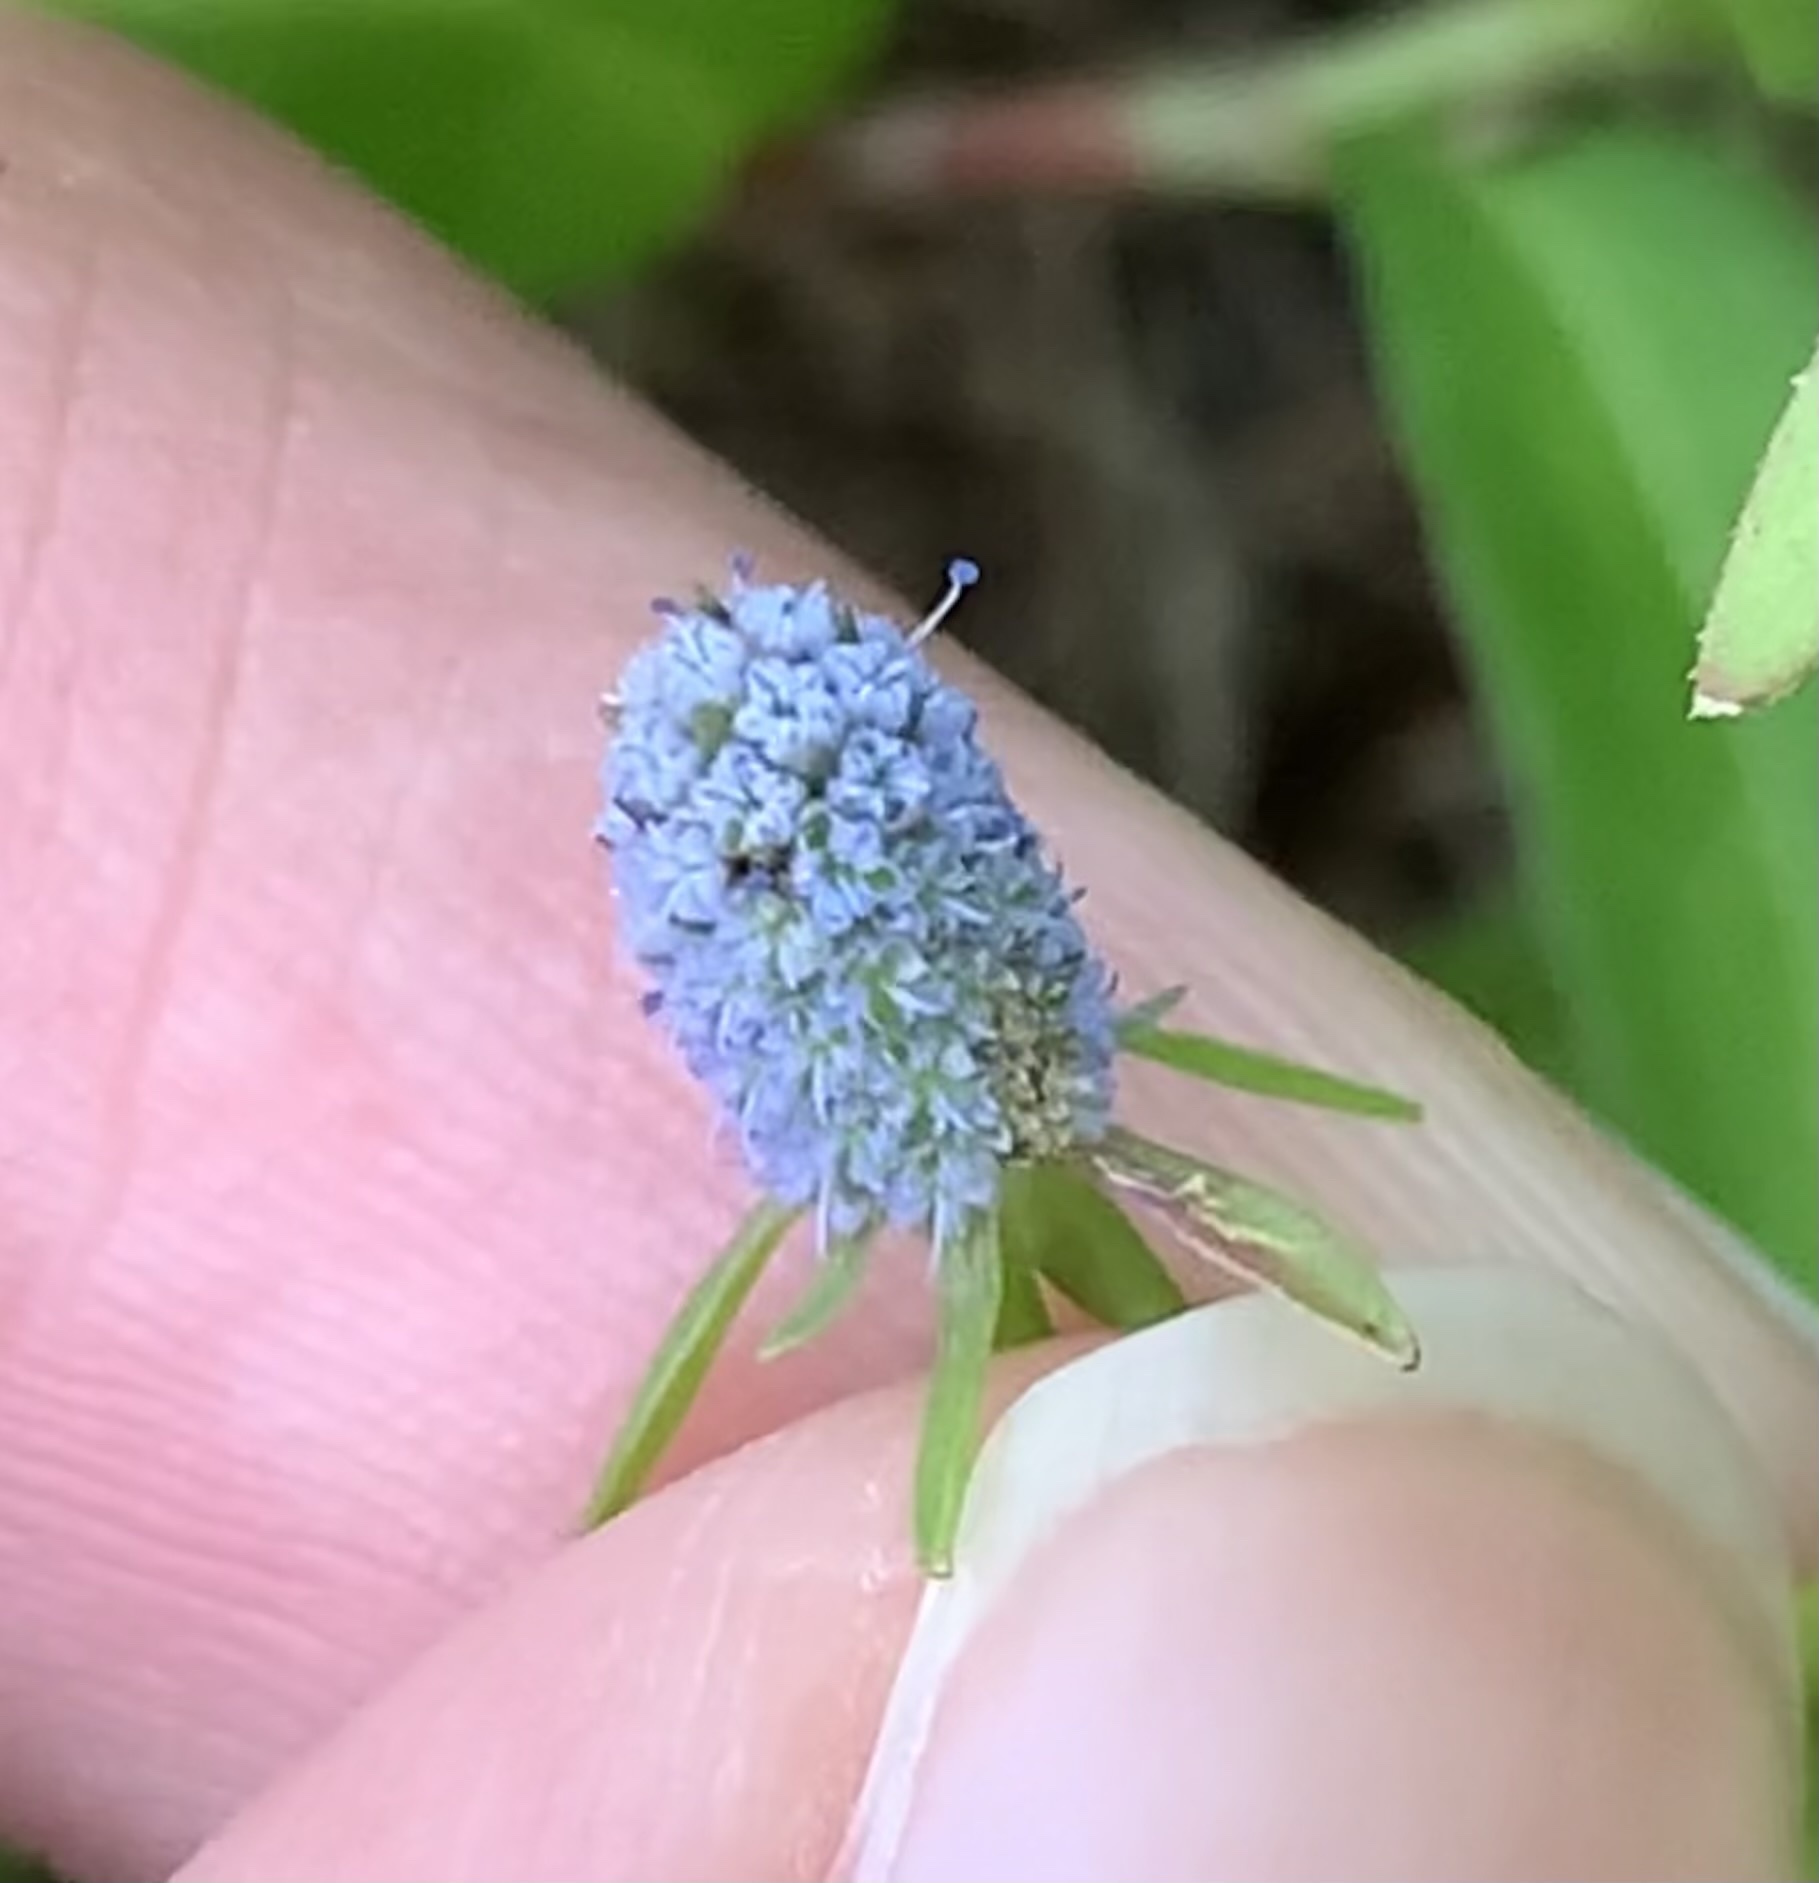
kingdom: Plantae
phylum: Tracheophyta
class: Magnoliopsida
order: Apiales
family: Apiaceae
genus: Eryngium
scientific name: Eryngium prostratum
